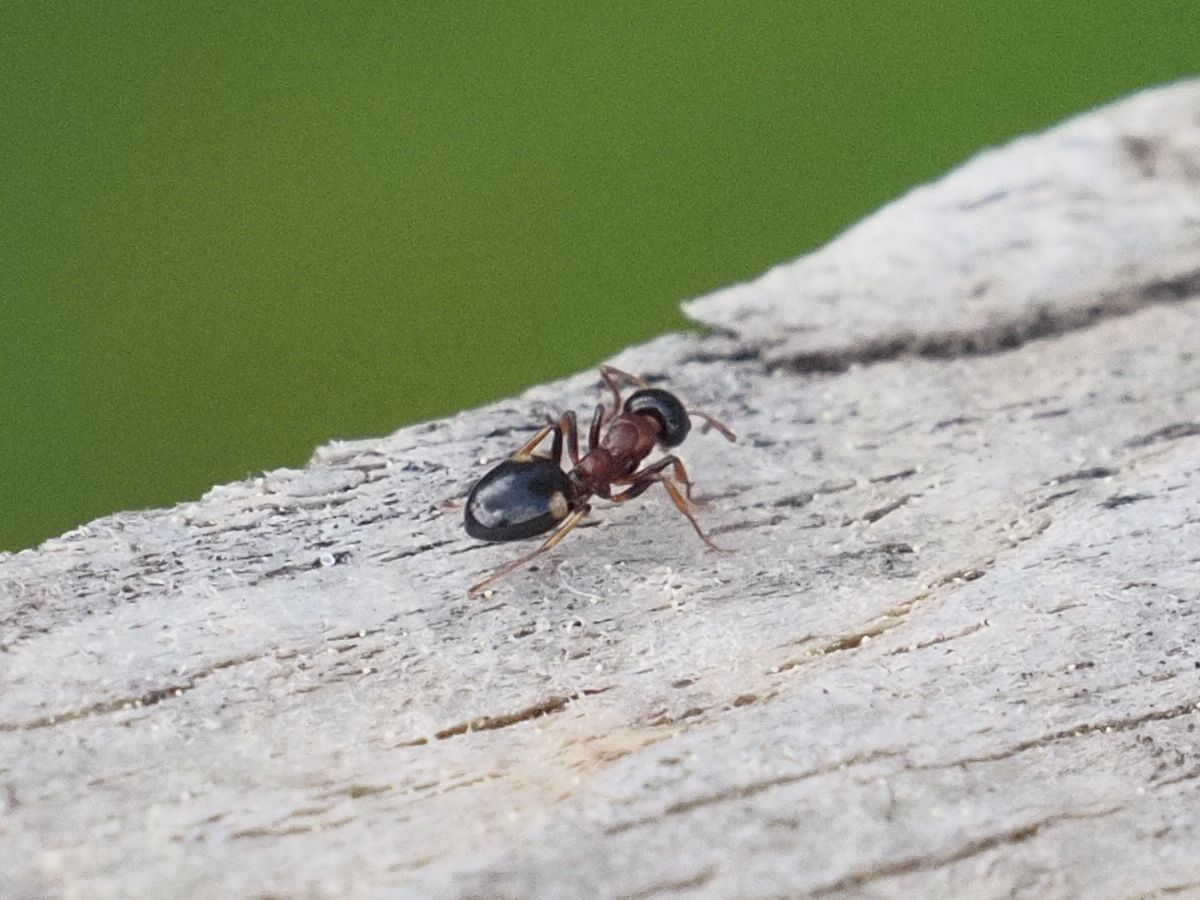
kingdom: Animalia
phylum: Arthropoda
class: Insecta
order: Hymenoptera
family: Formicidae
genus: Dolichoderus
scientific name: Dolichoderus quadripunctatus
